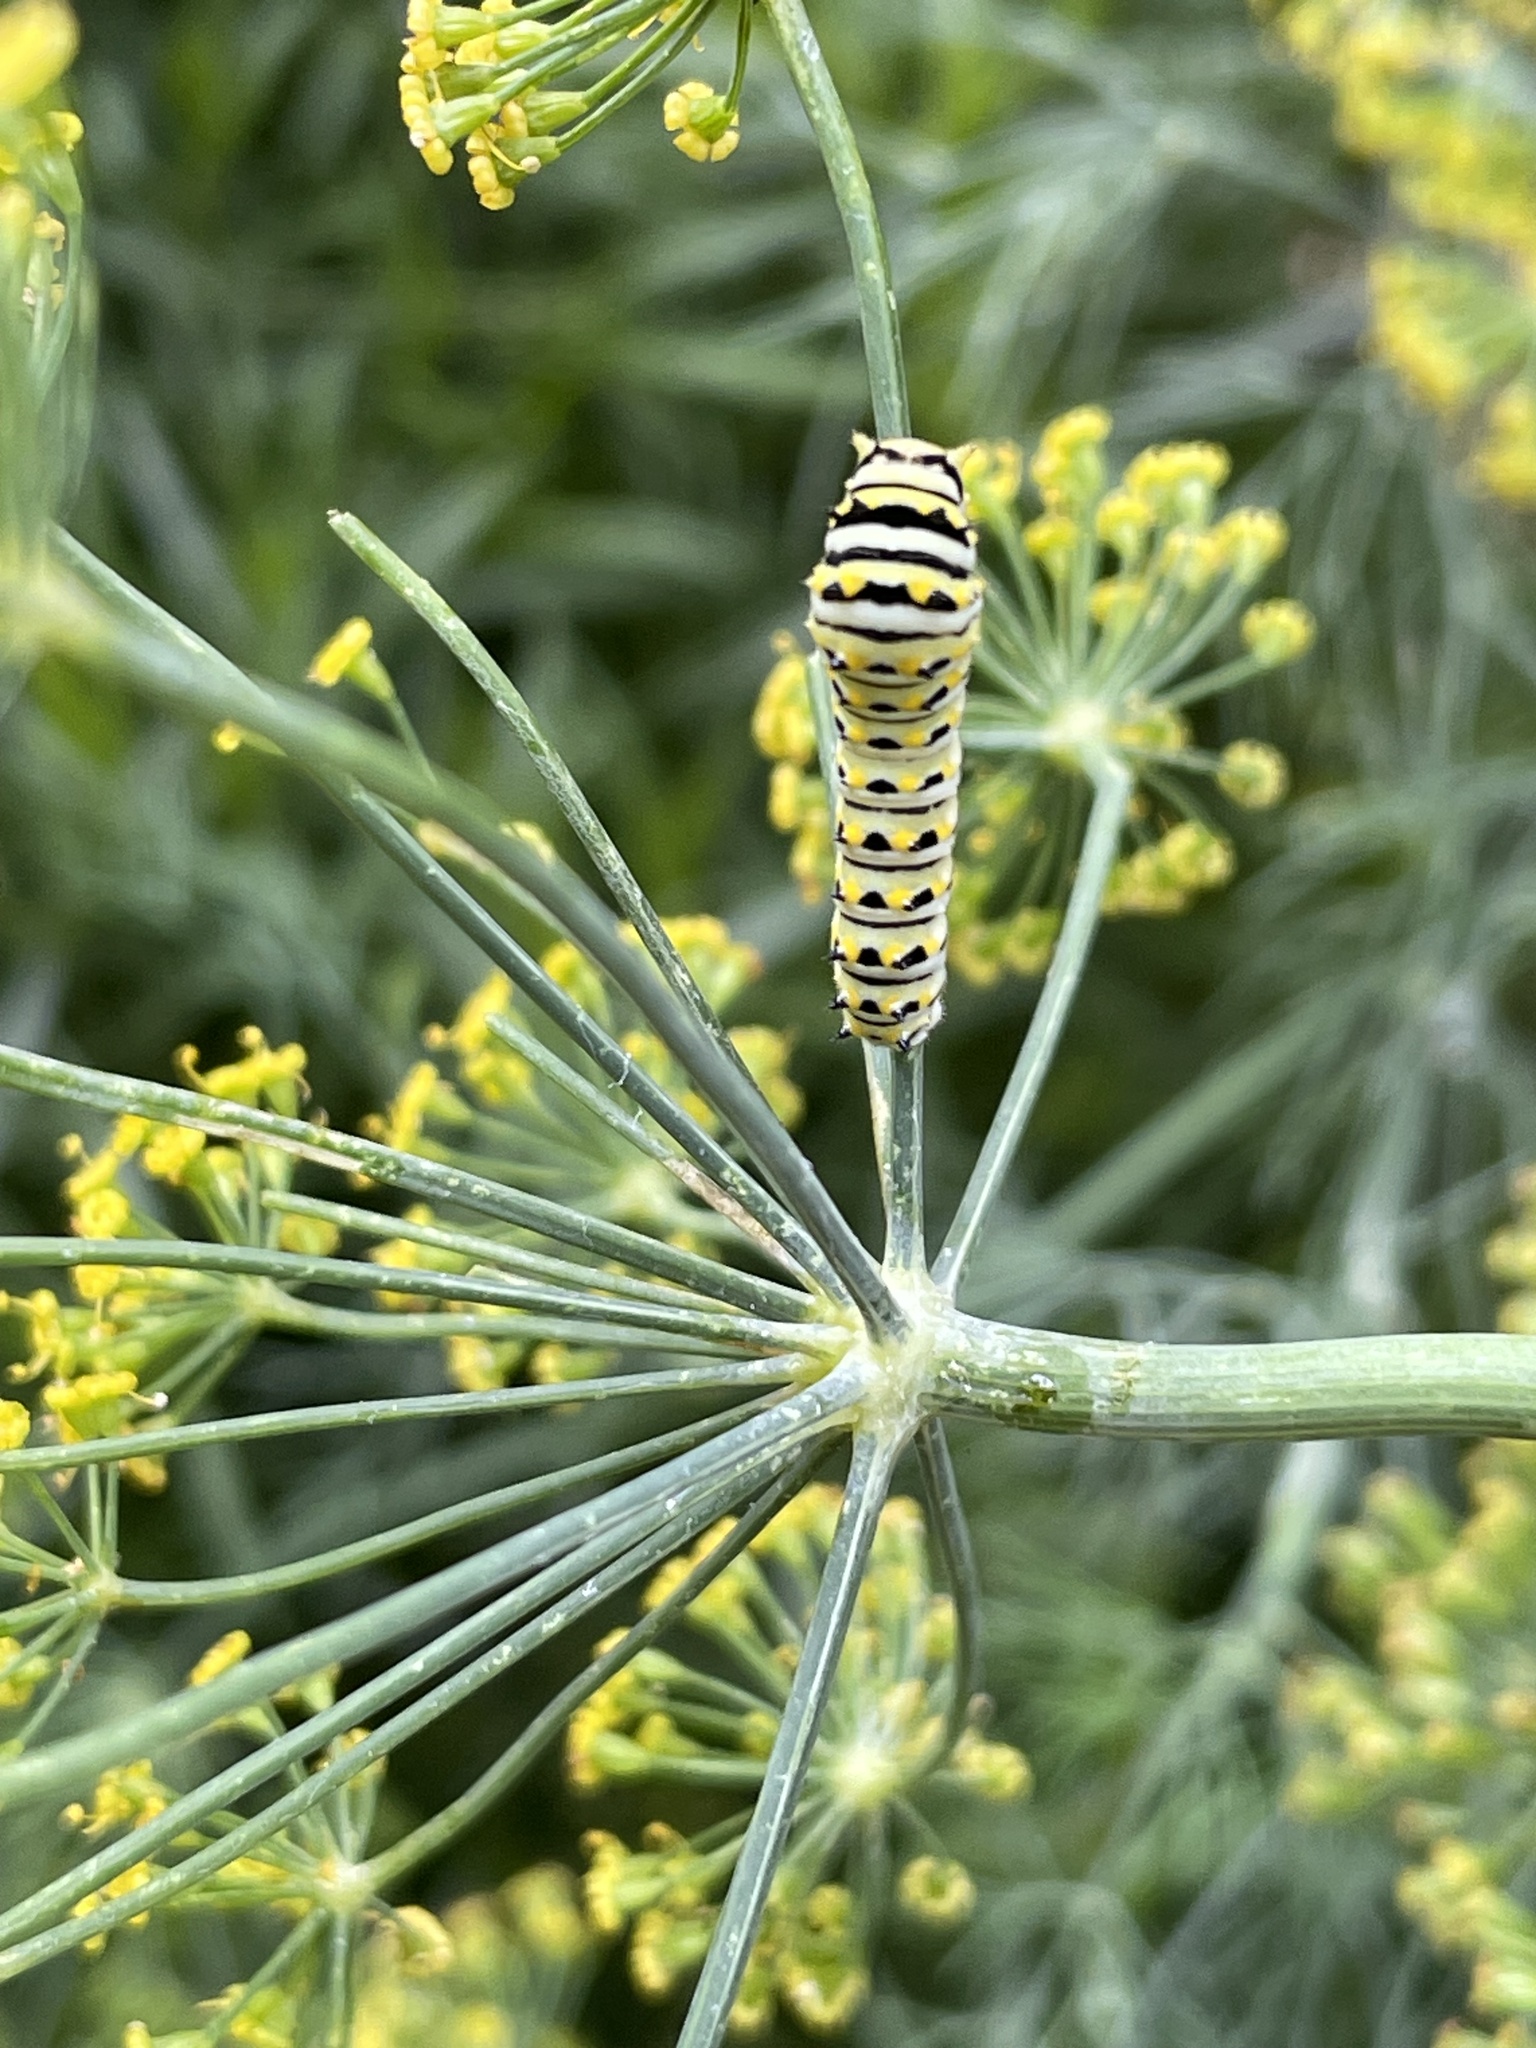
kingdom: Animalia
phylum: Arthropoda
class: Insecta
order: Lepidoptera
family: Papilionidae
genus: Papilio
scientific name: Papilio polyxenes
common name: Black swallowtail
